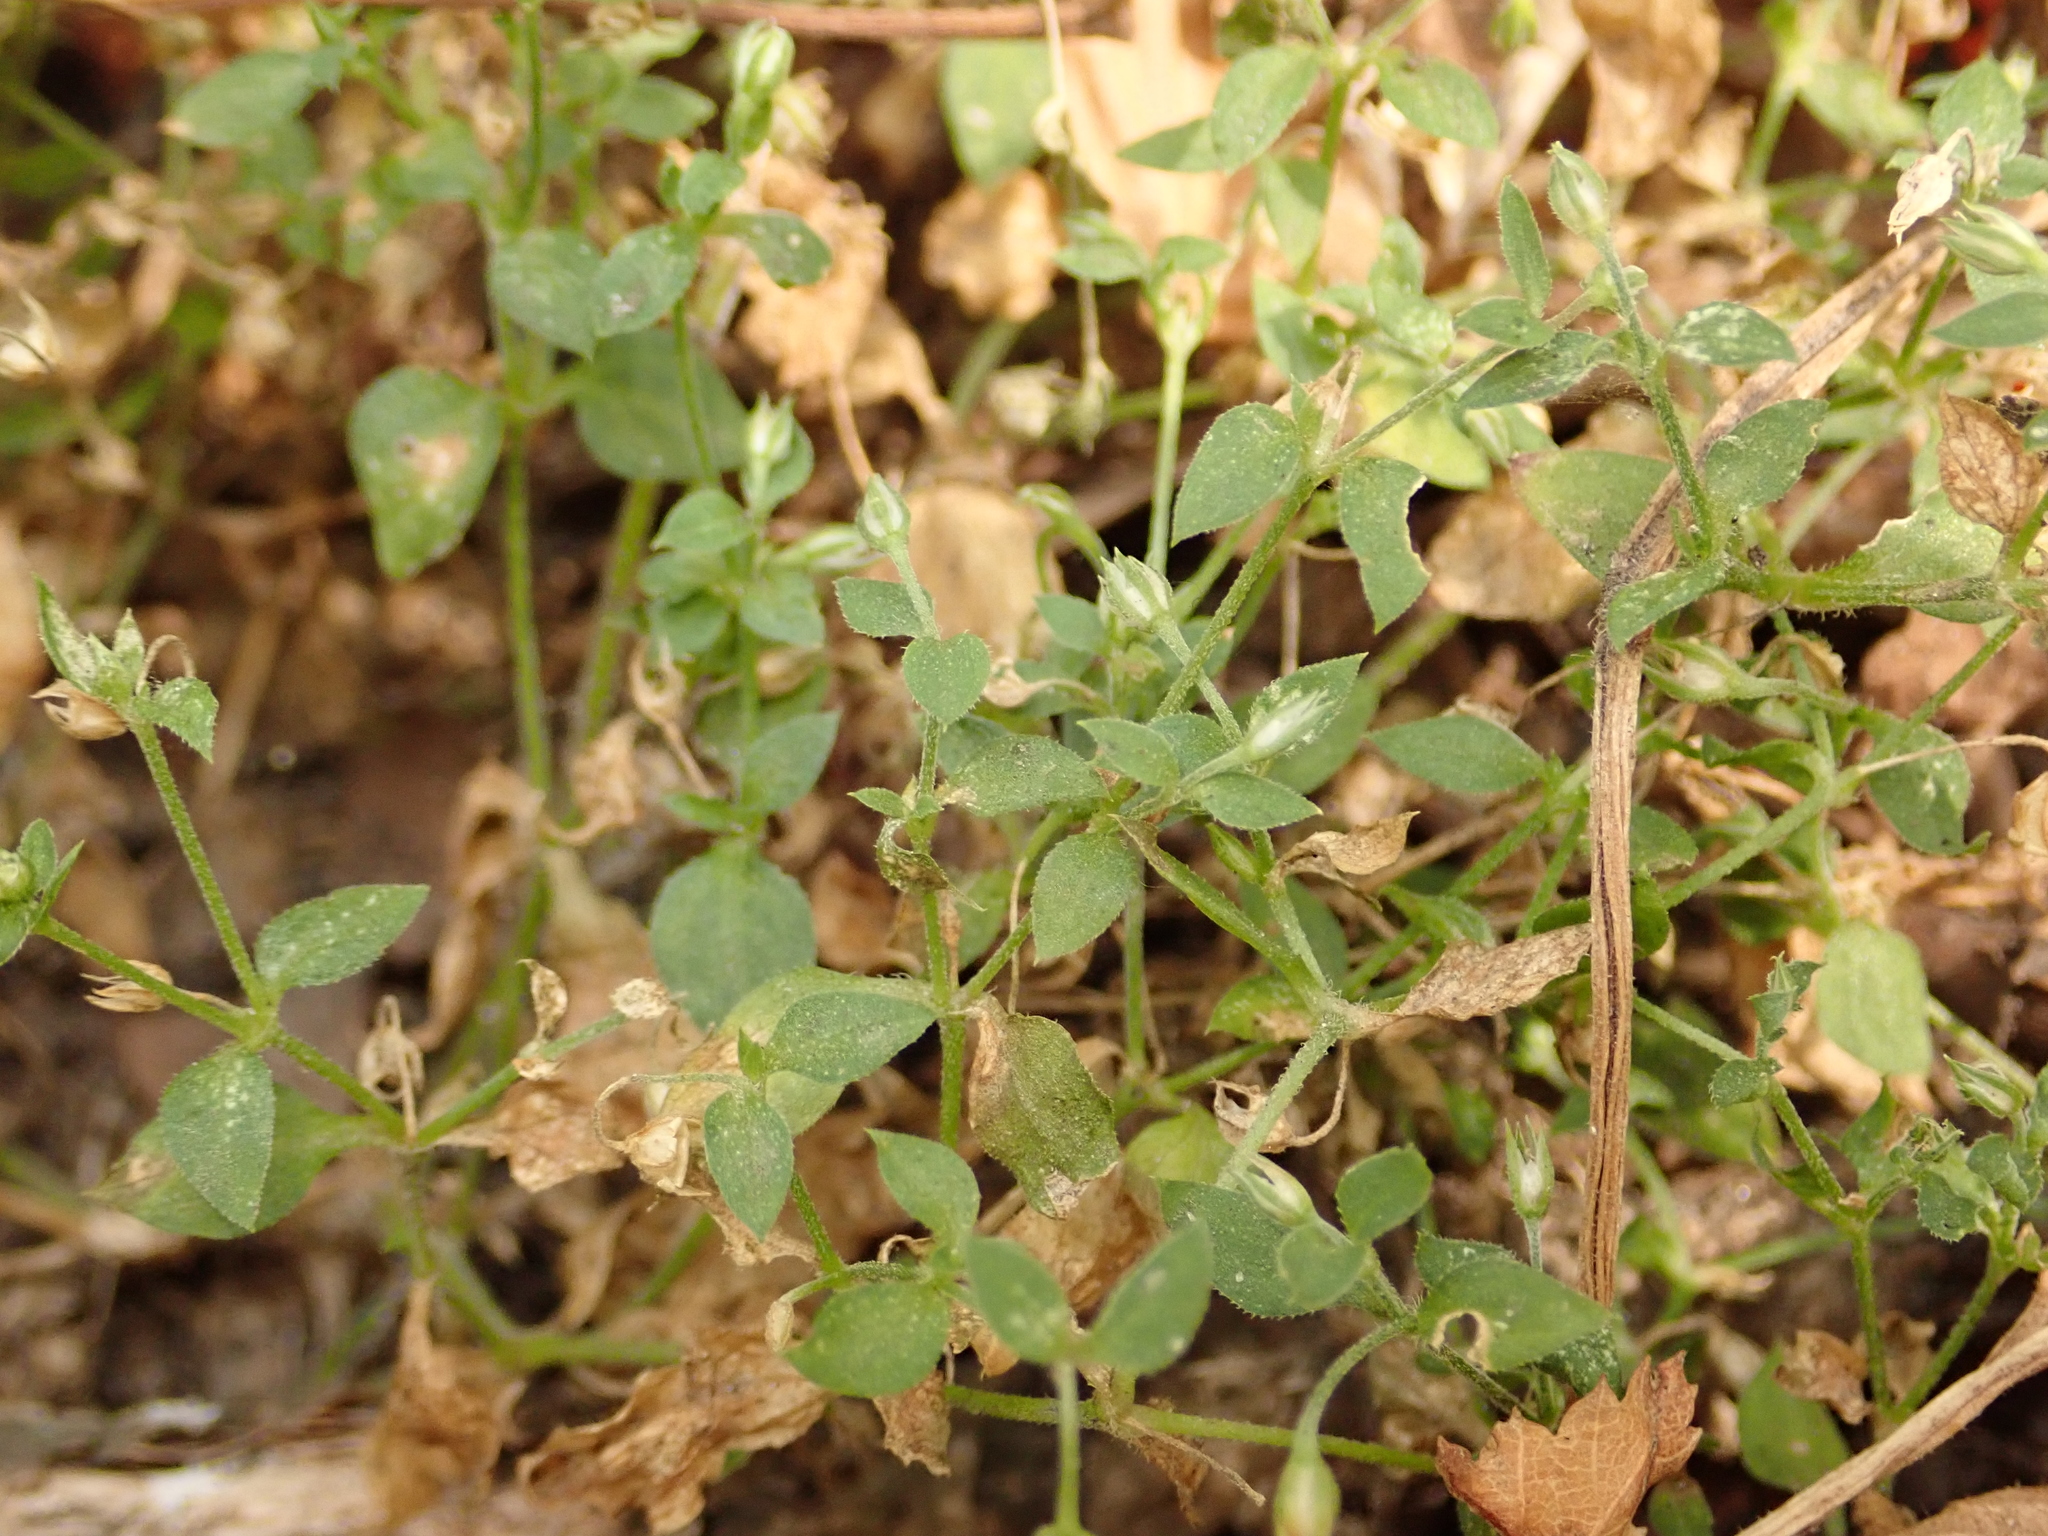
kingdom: Plantae
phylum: Tracheophyta
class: Magnoliopsida
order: Caryophyllales
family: Caryophyllaceae
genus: Moehringia
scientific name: Moehringia trinervia
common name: Three-nerved sandwort
